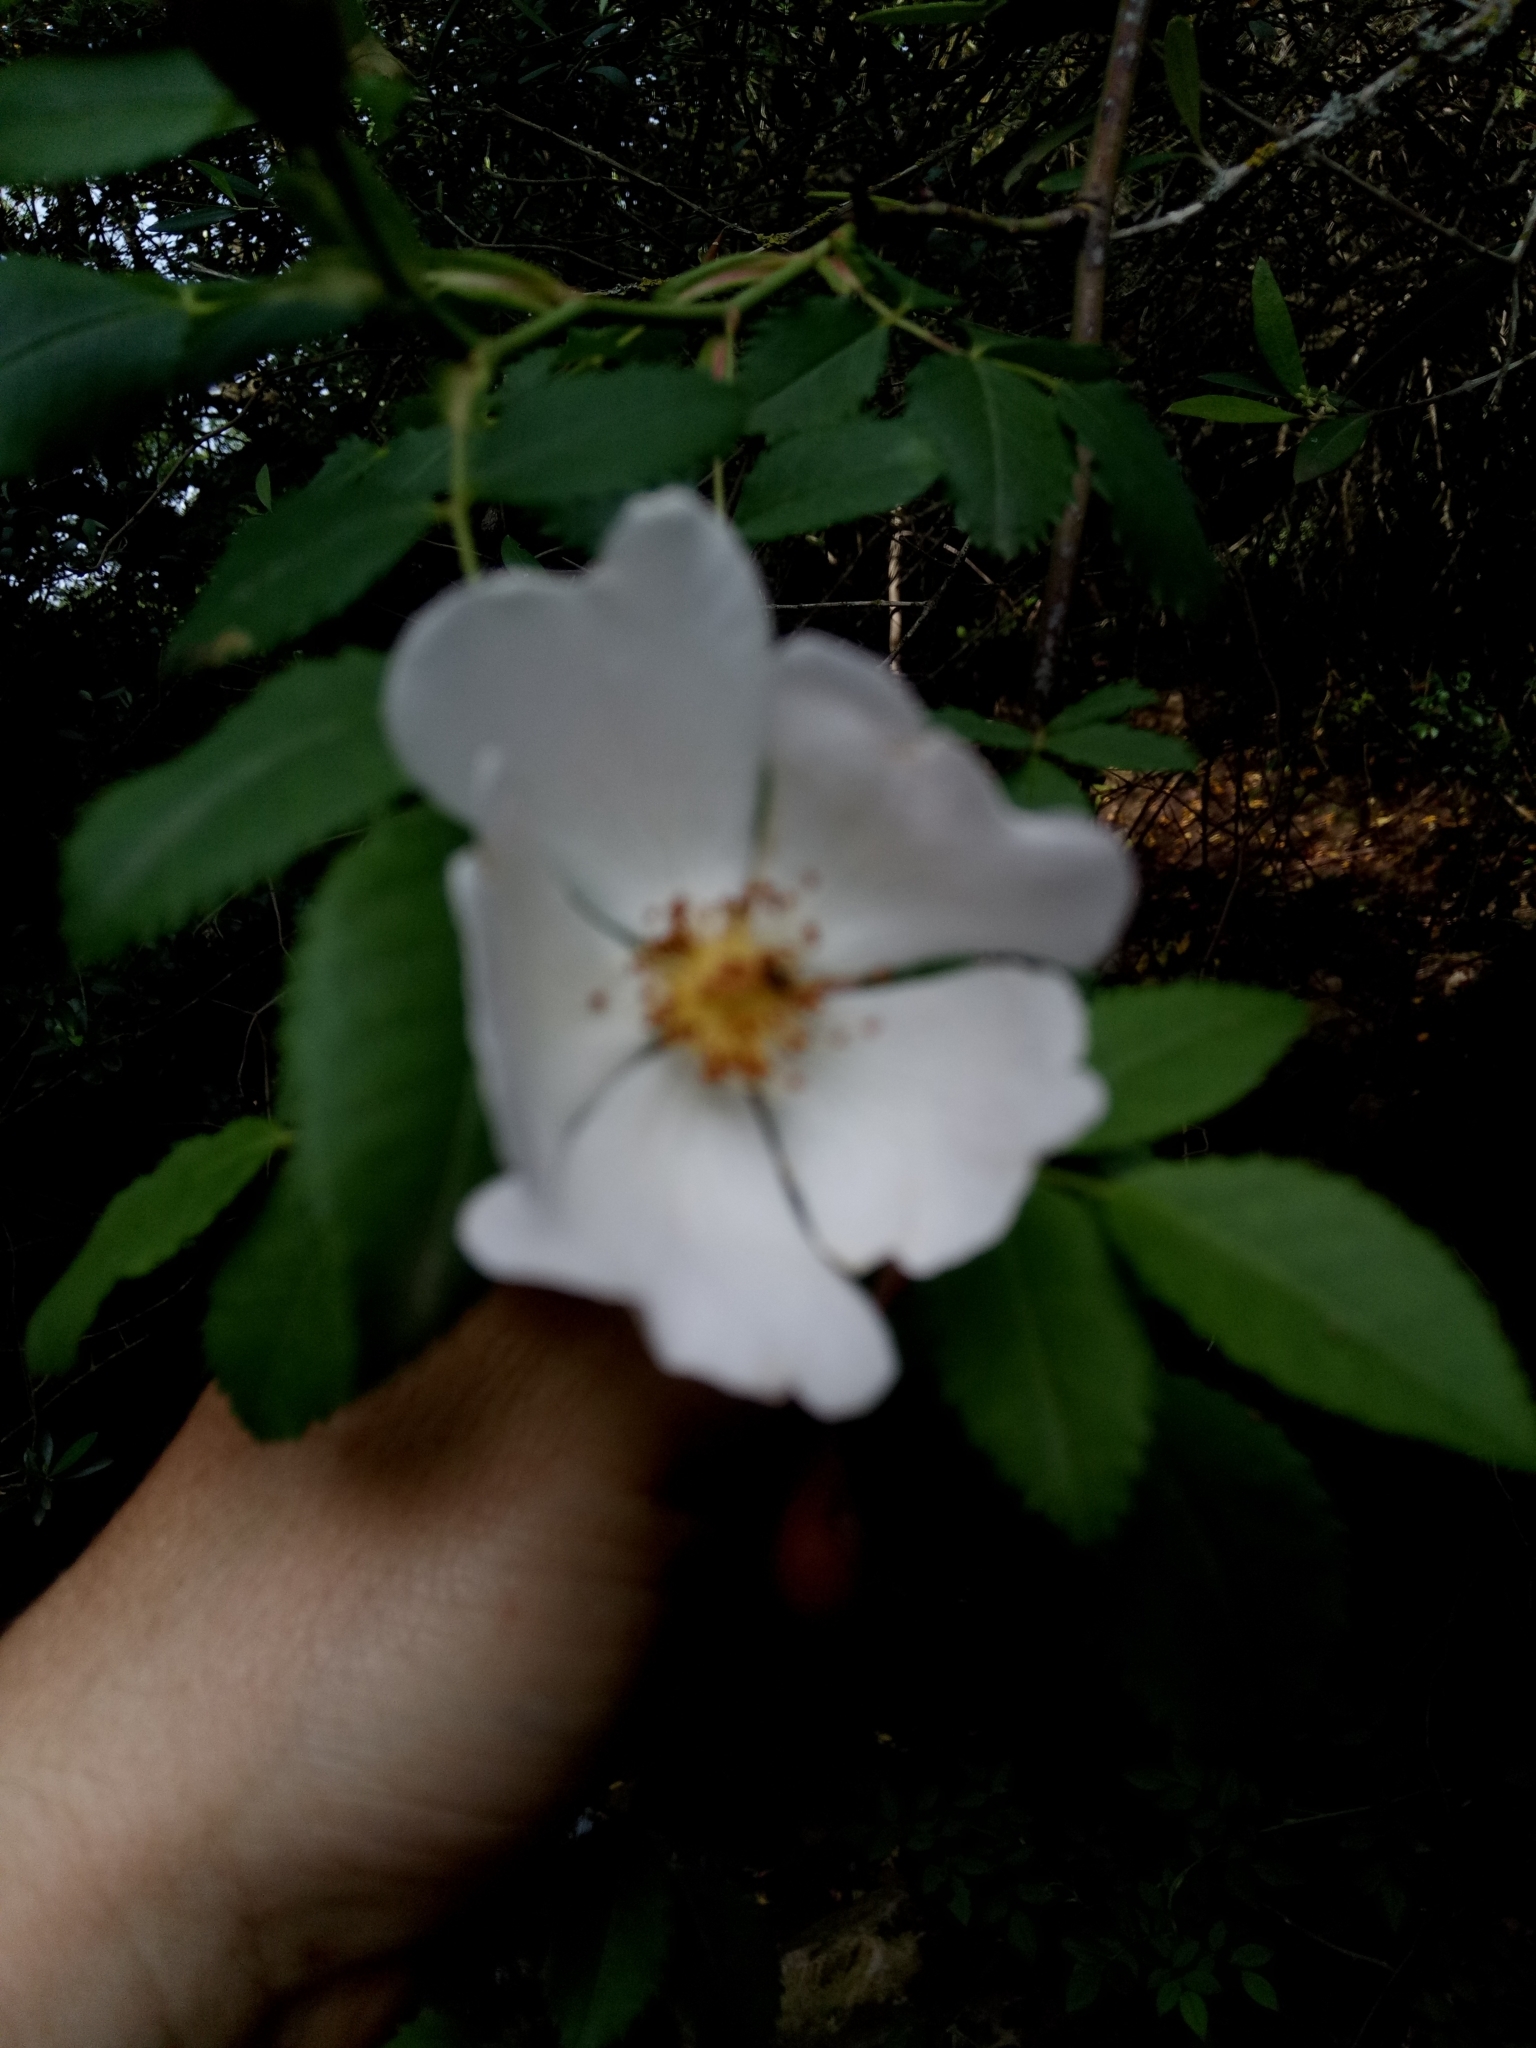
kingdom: Plantae
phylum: Tracheophyta
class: Magnoliopsida
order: Rosales
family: Rosaceae
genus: Rosa
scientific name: Rosa canina
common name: Dog rose
